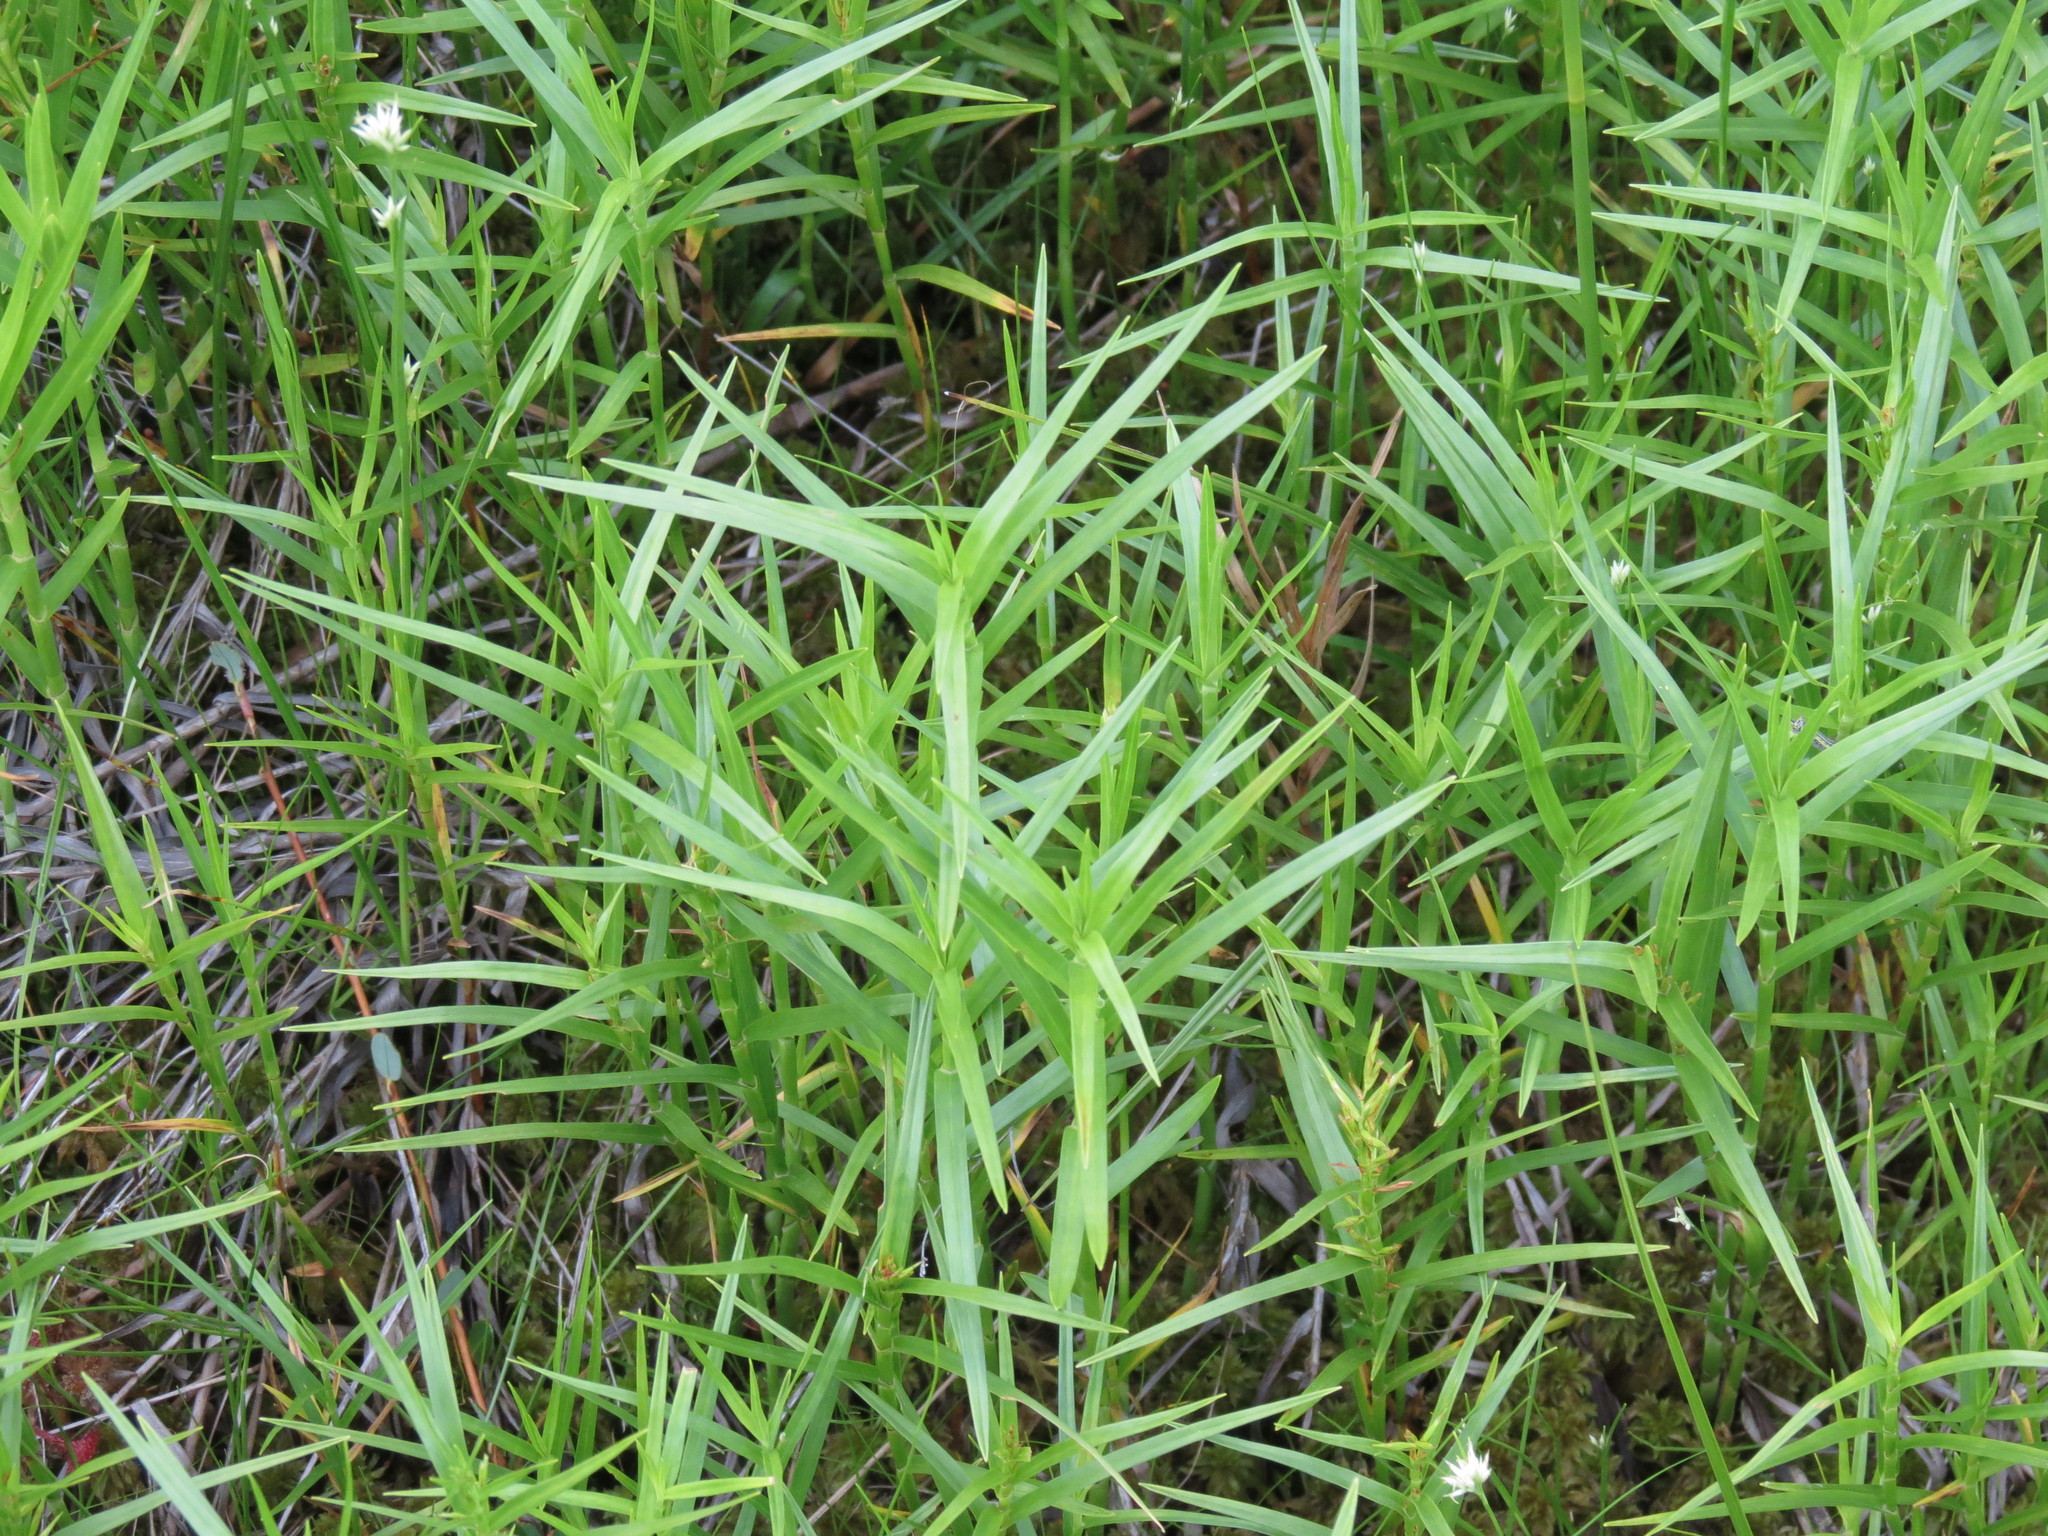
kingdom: Plantae
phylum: Tracheophyta
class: Liliopsida
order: Poales
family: Cyperaceae
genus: Dulichium
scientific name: Dulichium arundinaceum
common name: Three-way sedge
